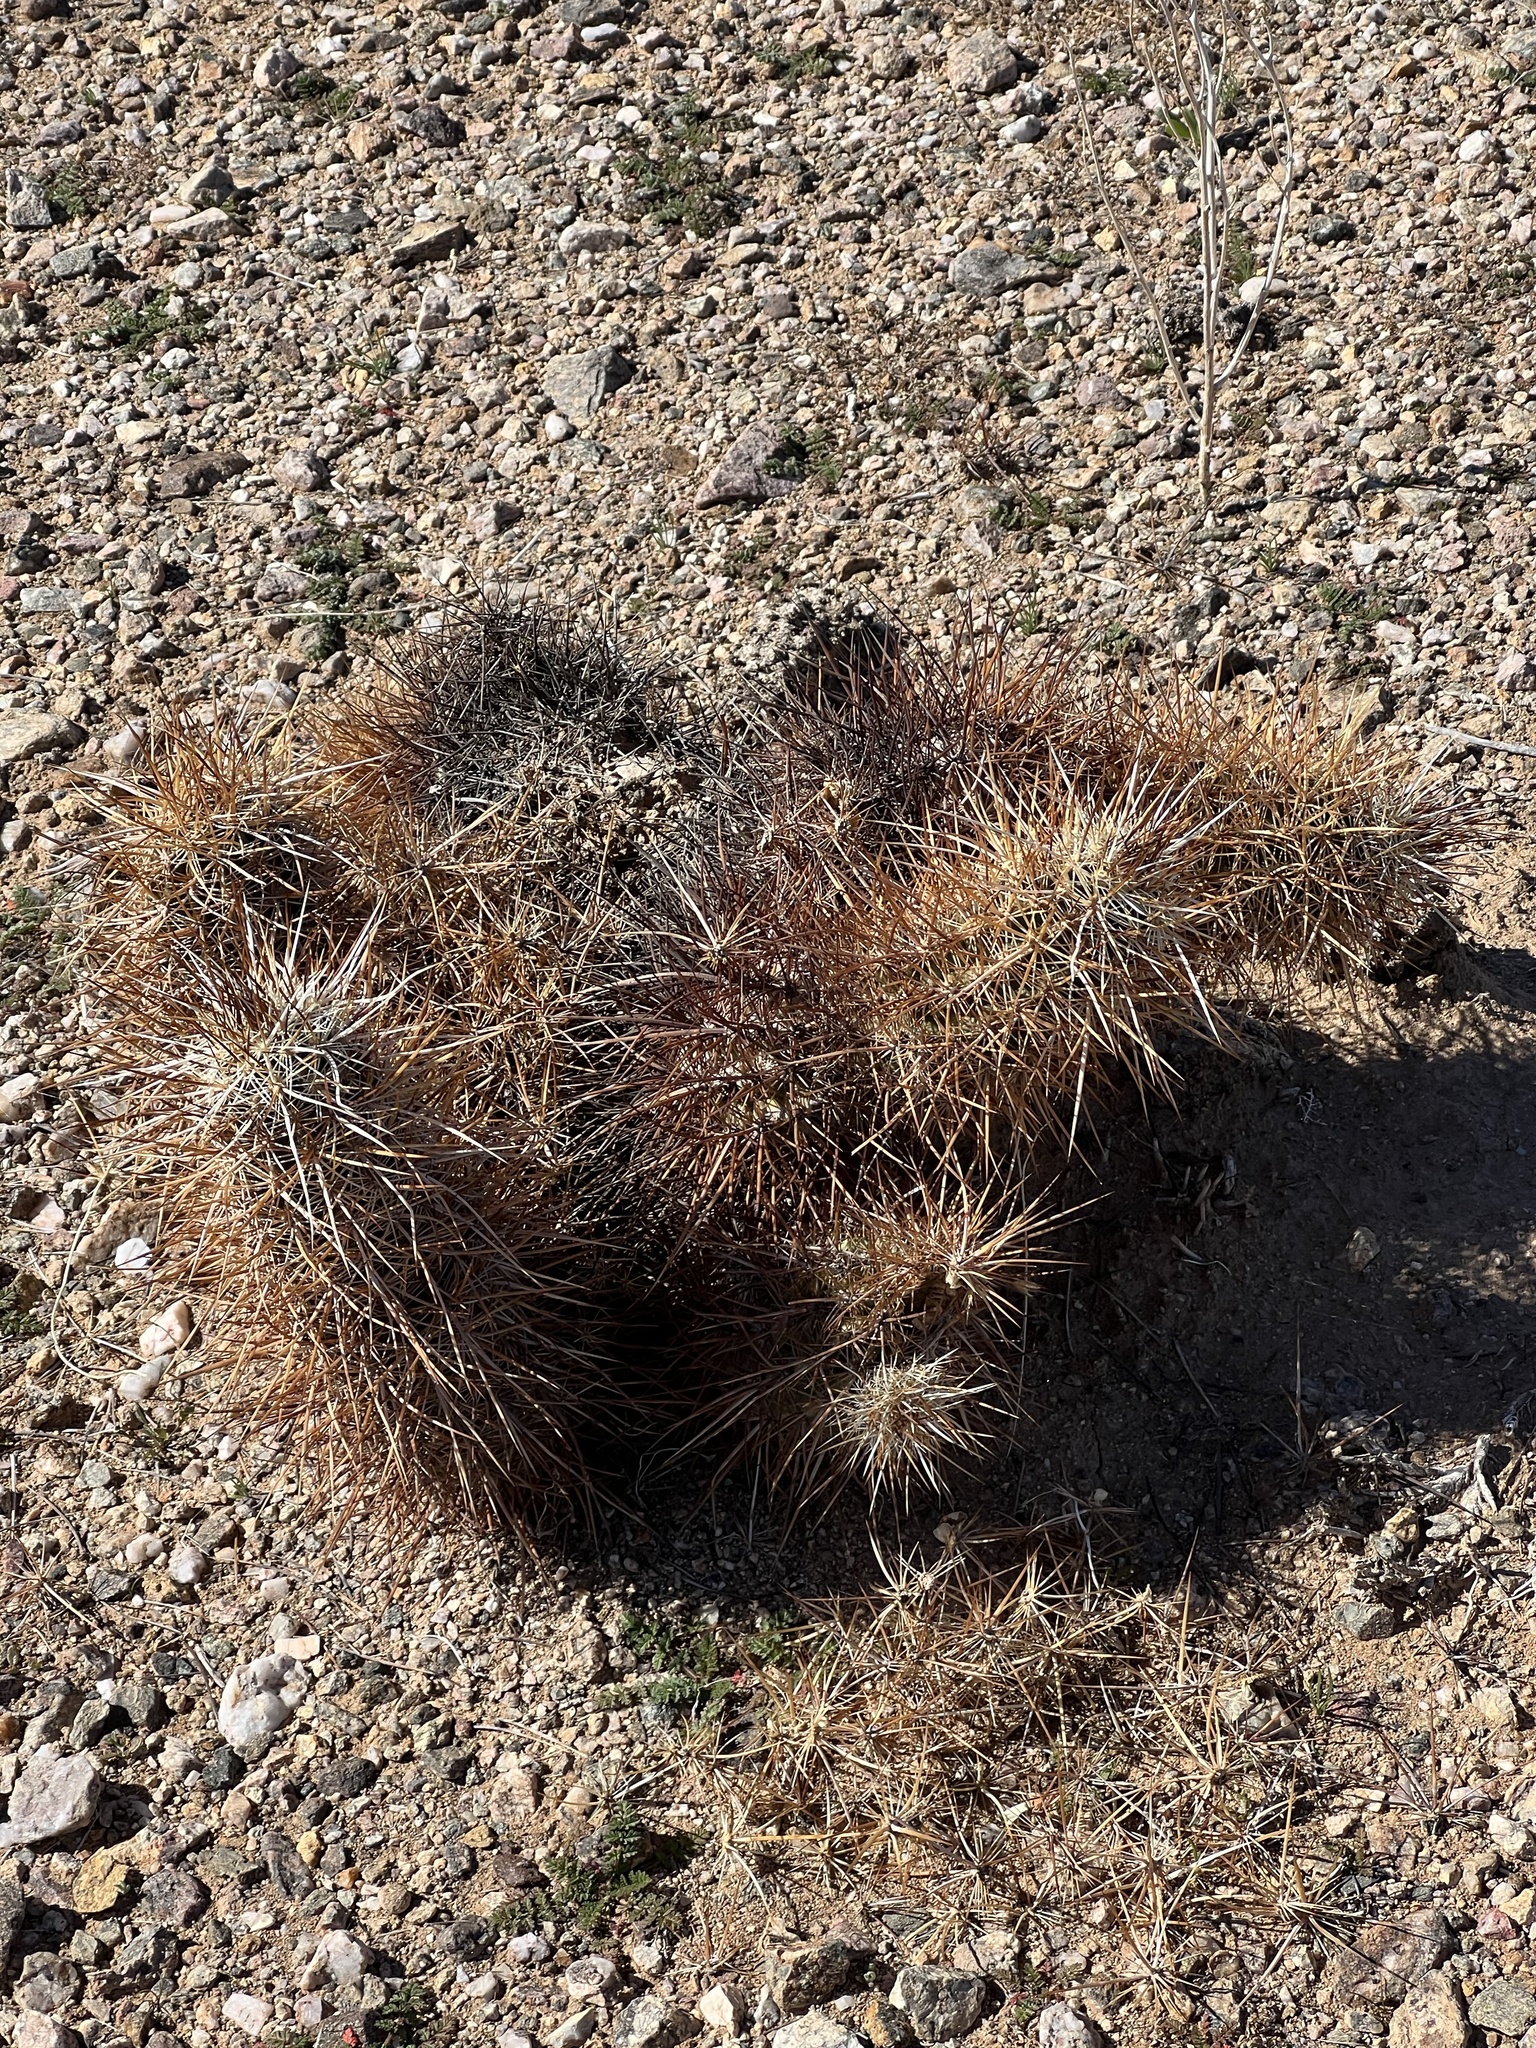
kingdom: Plantae
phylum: Tracheophyta
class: Magnoliopsida
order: Caryophyllales
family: Cactaceae
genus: Echinocereus
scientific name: Echinocereus engelmannii
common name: Engelmann's hedgehog cactus
